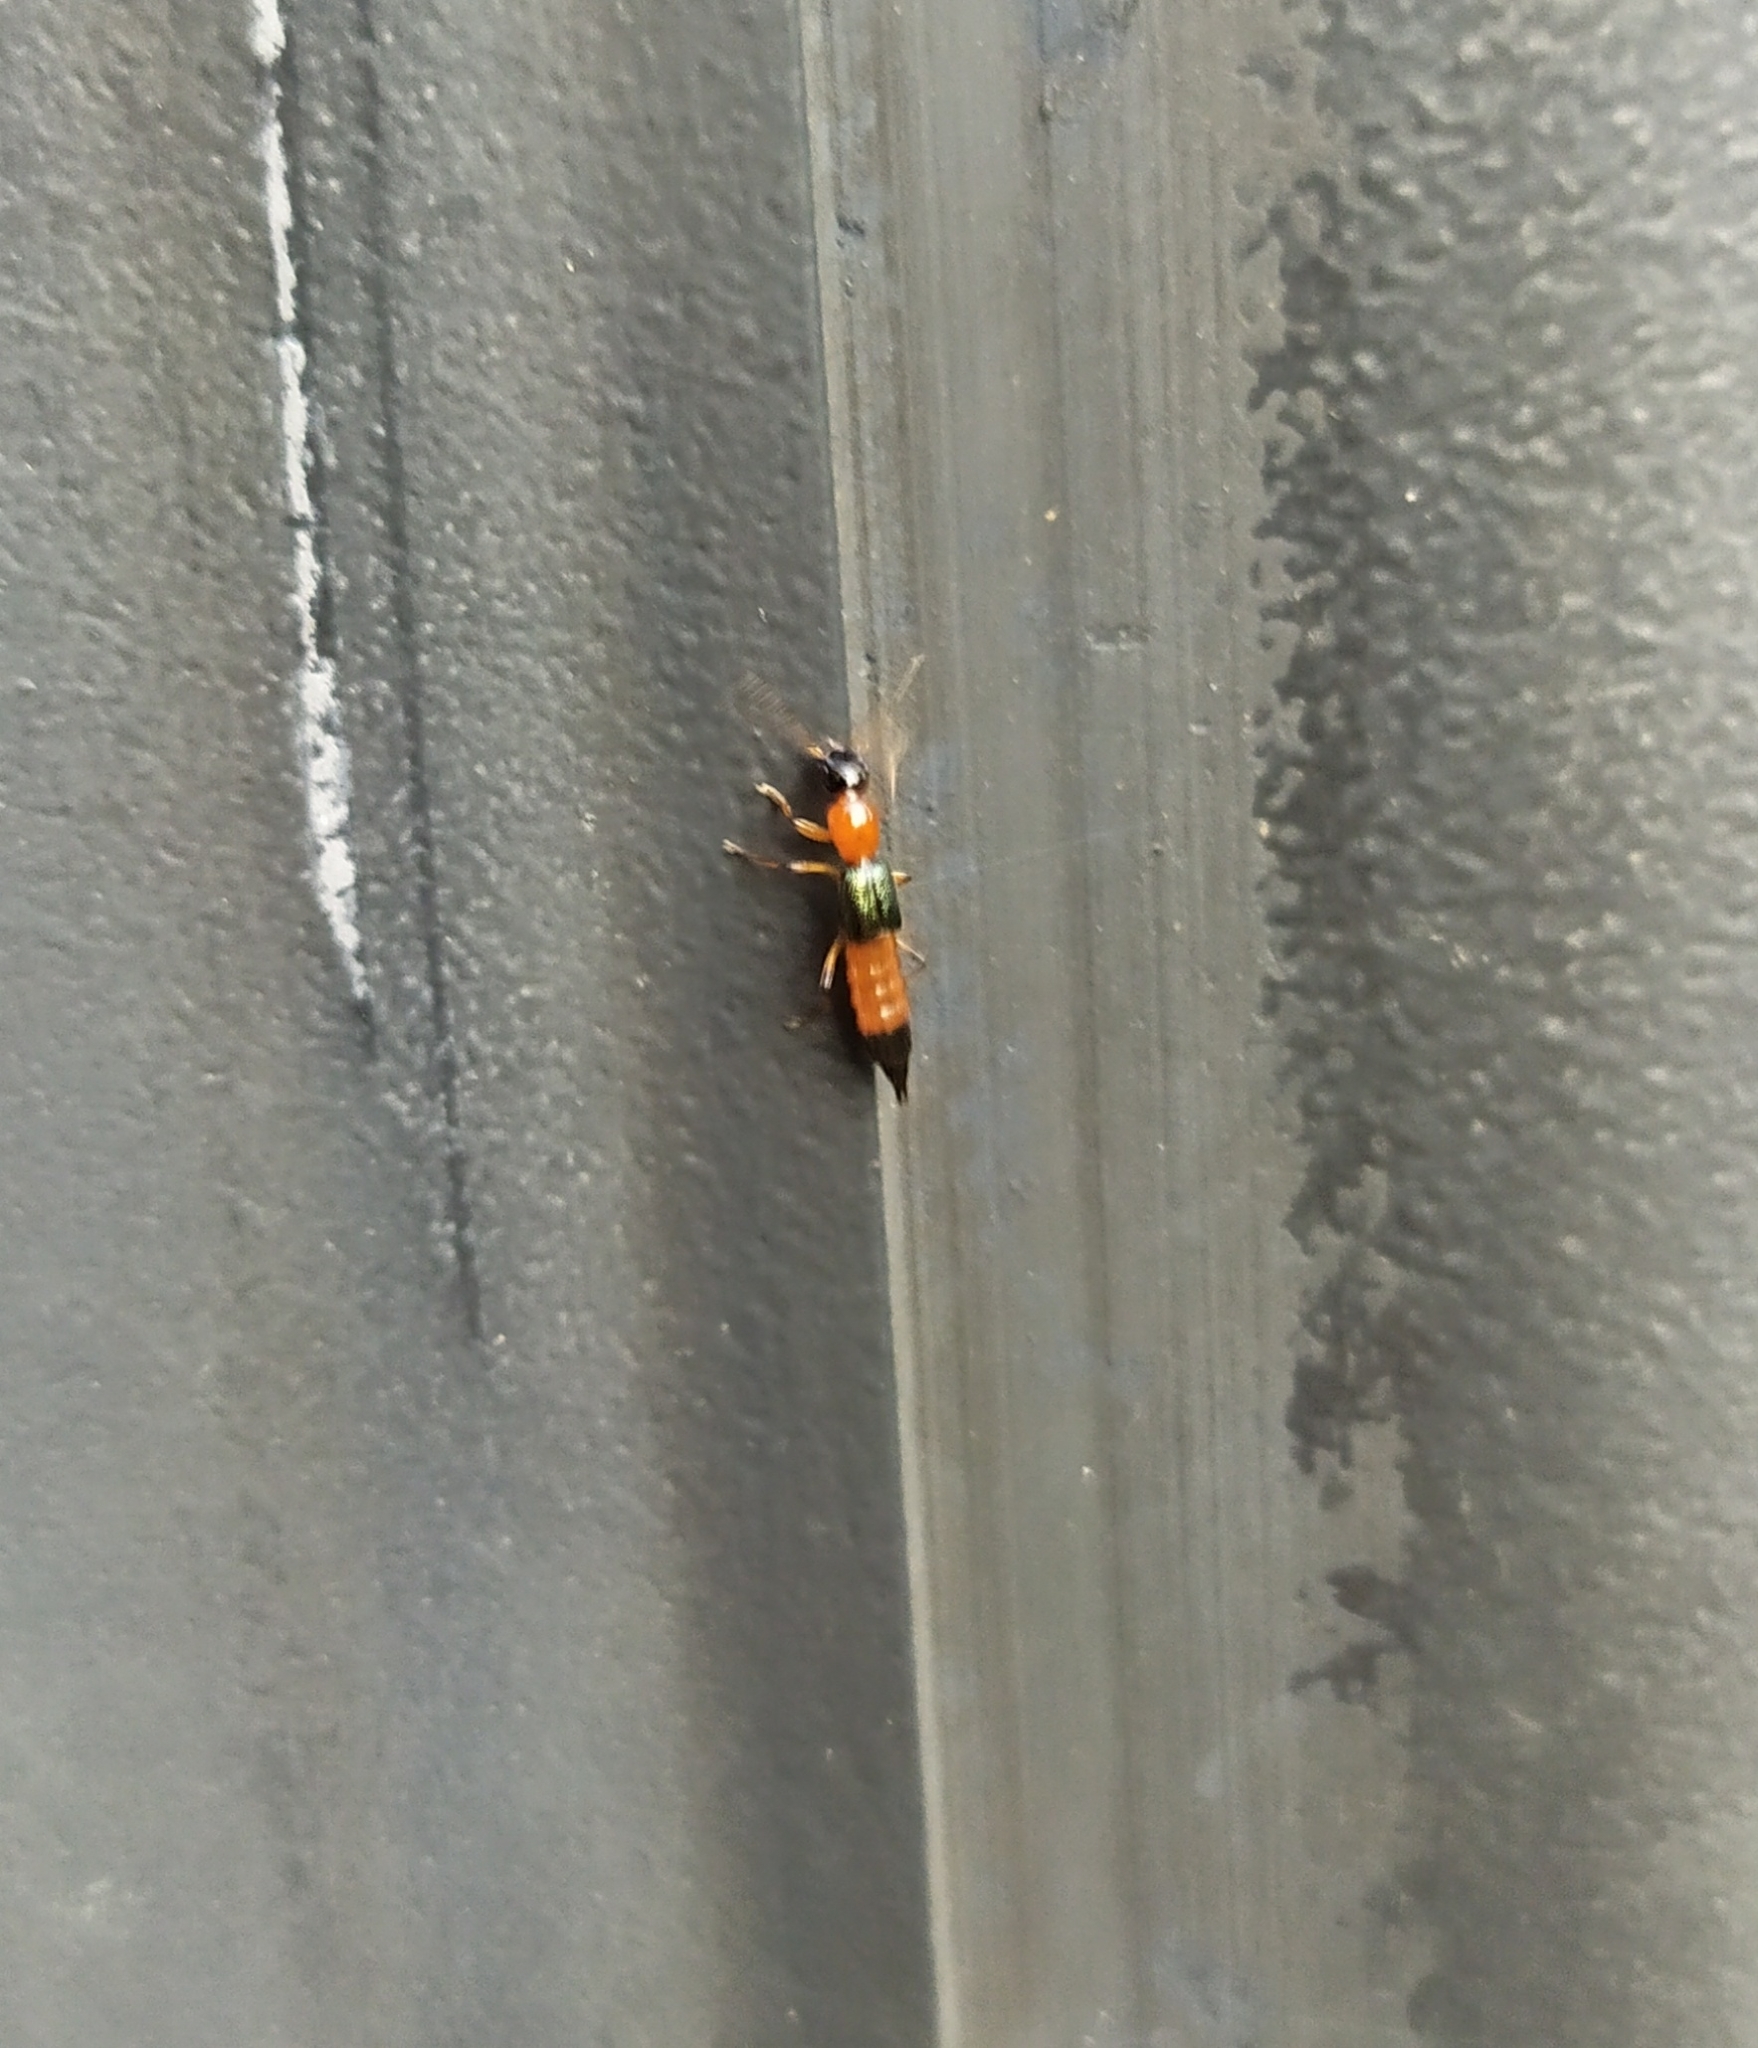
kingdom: Animalia
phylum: Arthropoda
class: Insecta
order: Coleoptera
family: Staphylinidae
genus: Paederus
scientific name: Paederus
